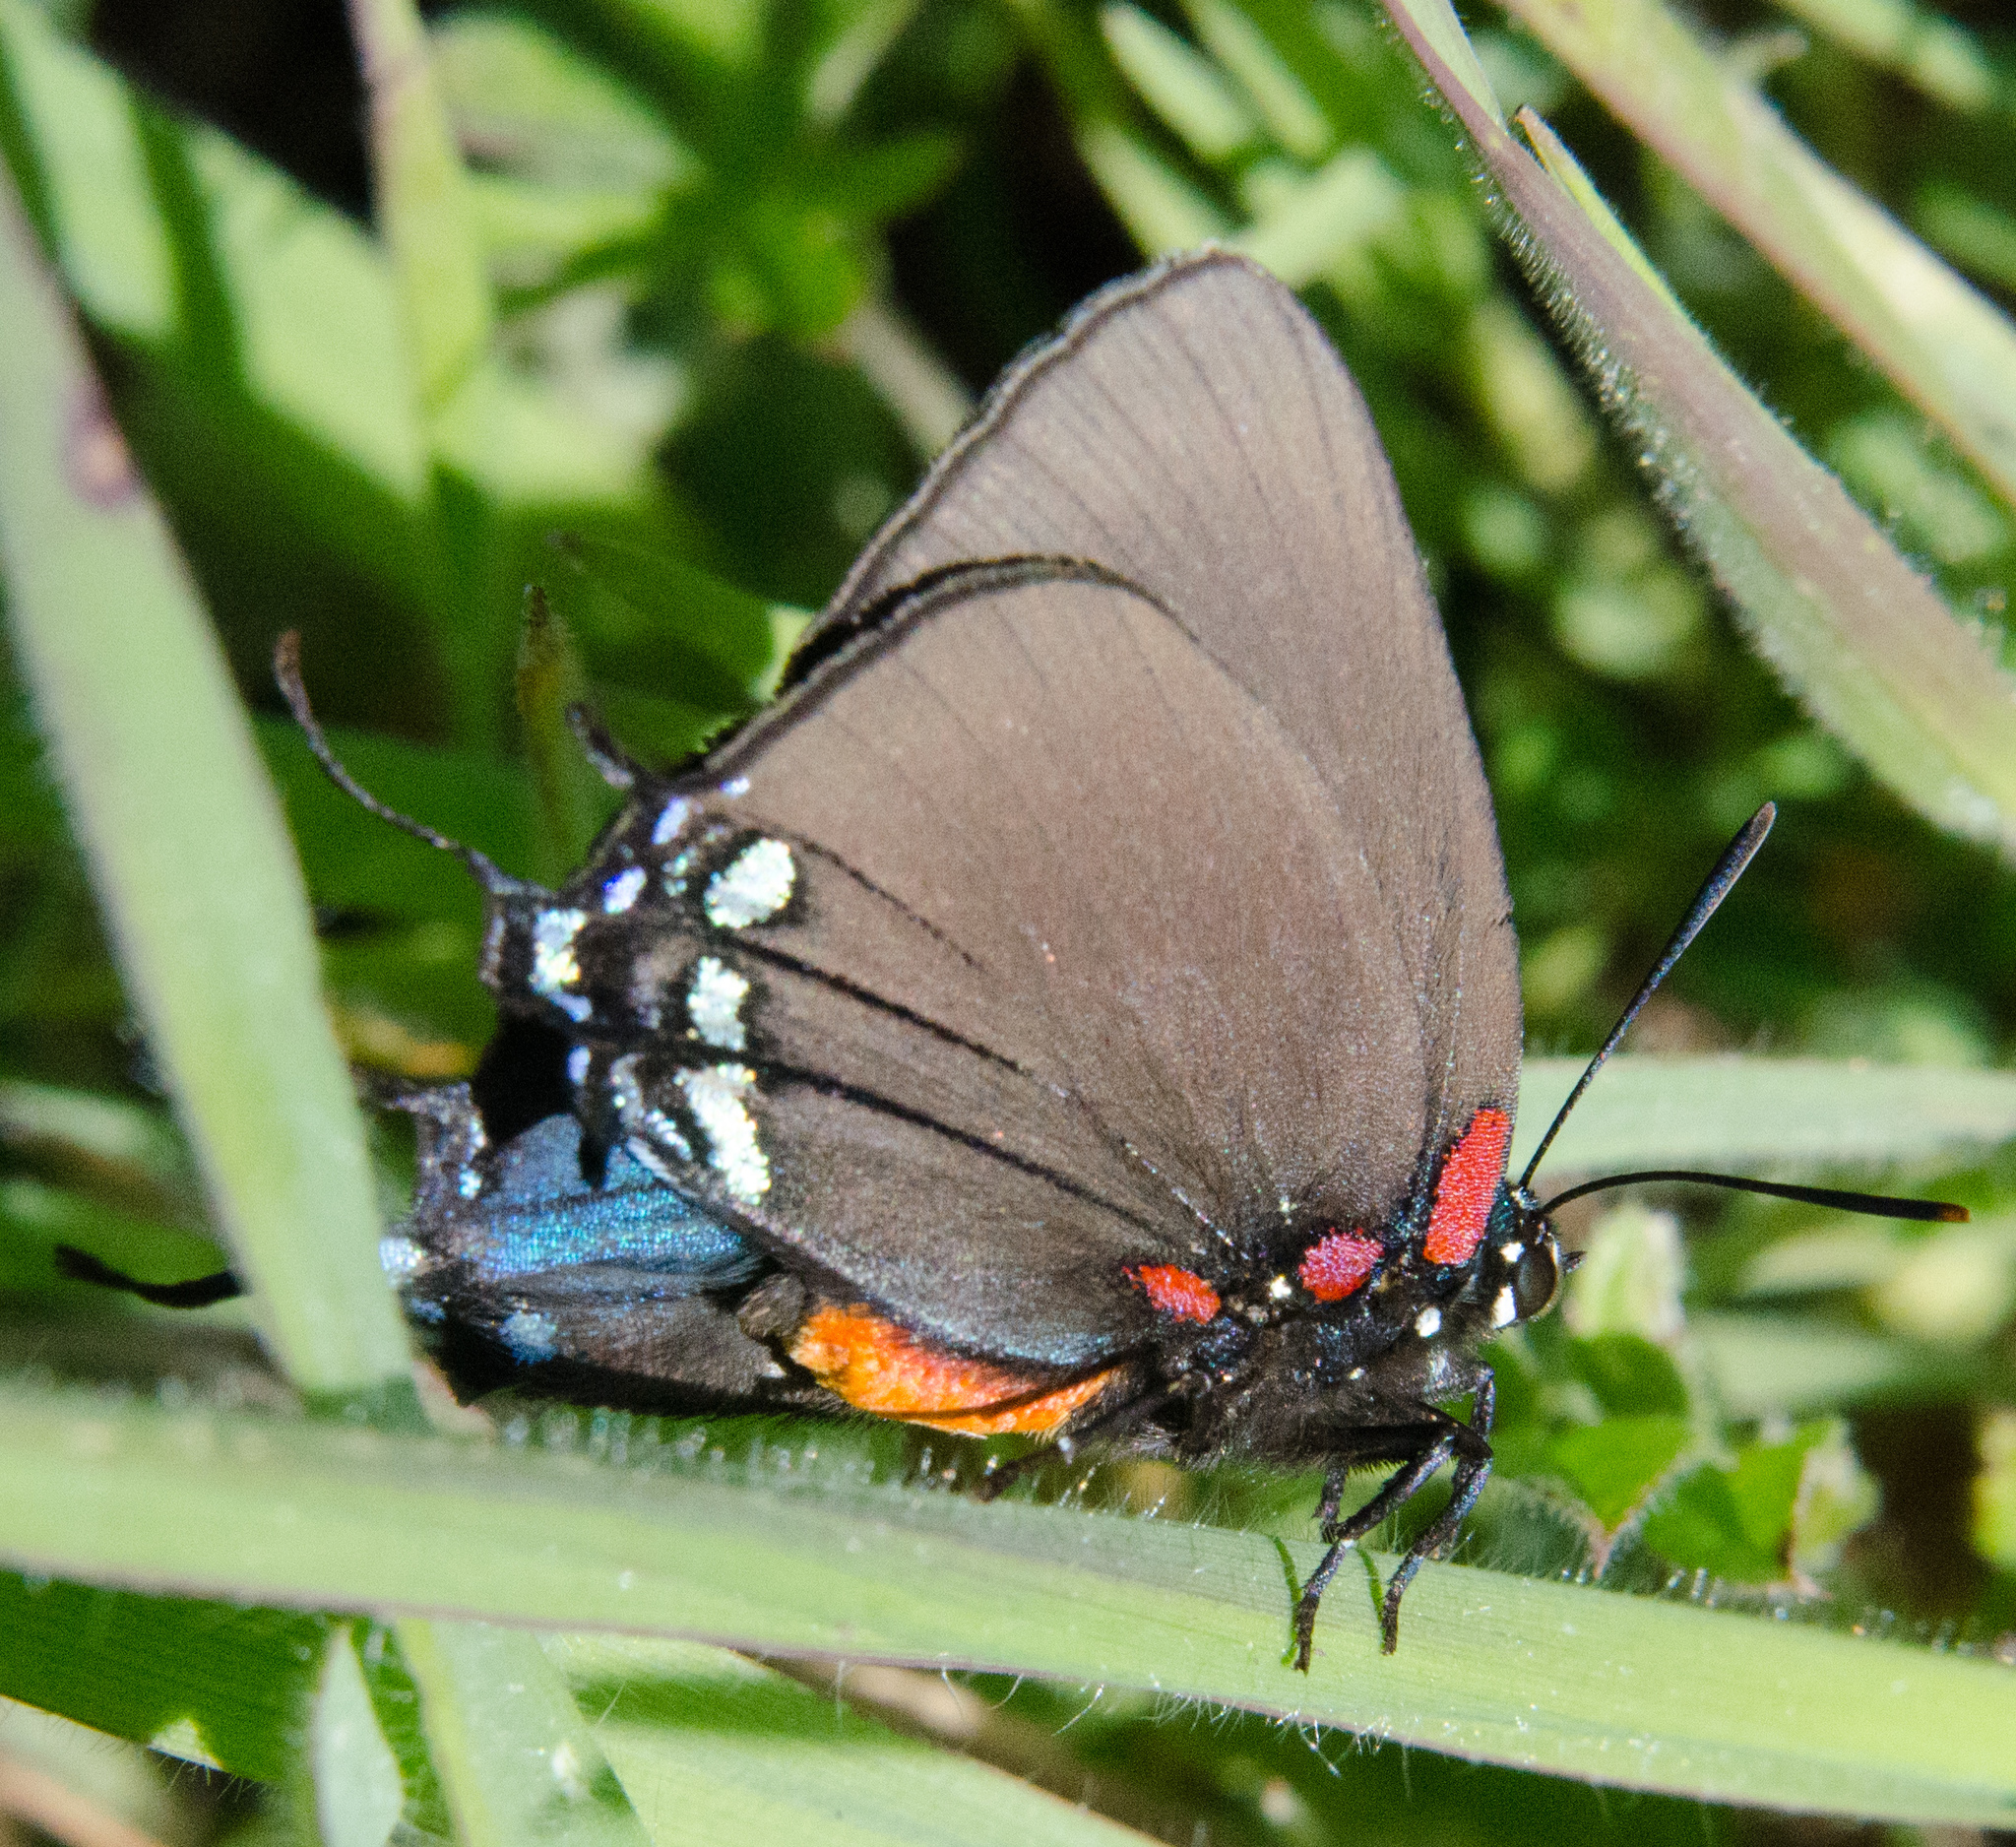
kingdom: Animalia
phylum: Arthropoda
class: Insecta
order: Lepidoptera
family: Lycaenidae
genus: Atlides
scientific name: Atlides halesus
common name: Great purple hairstreak
